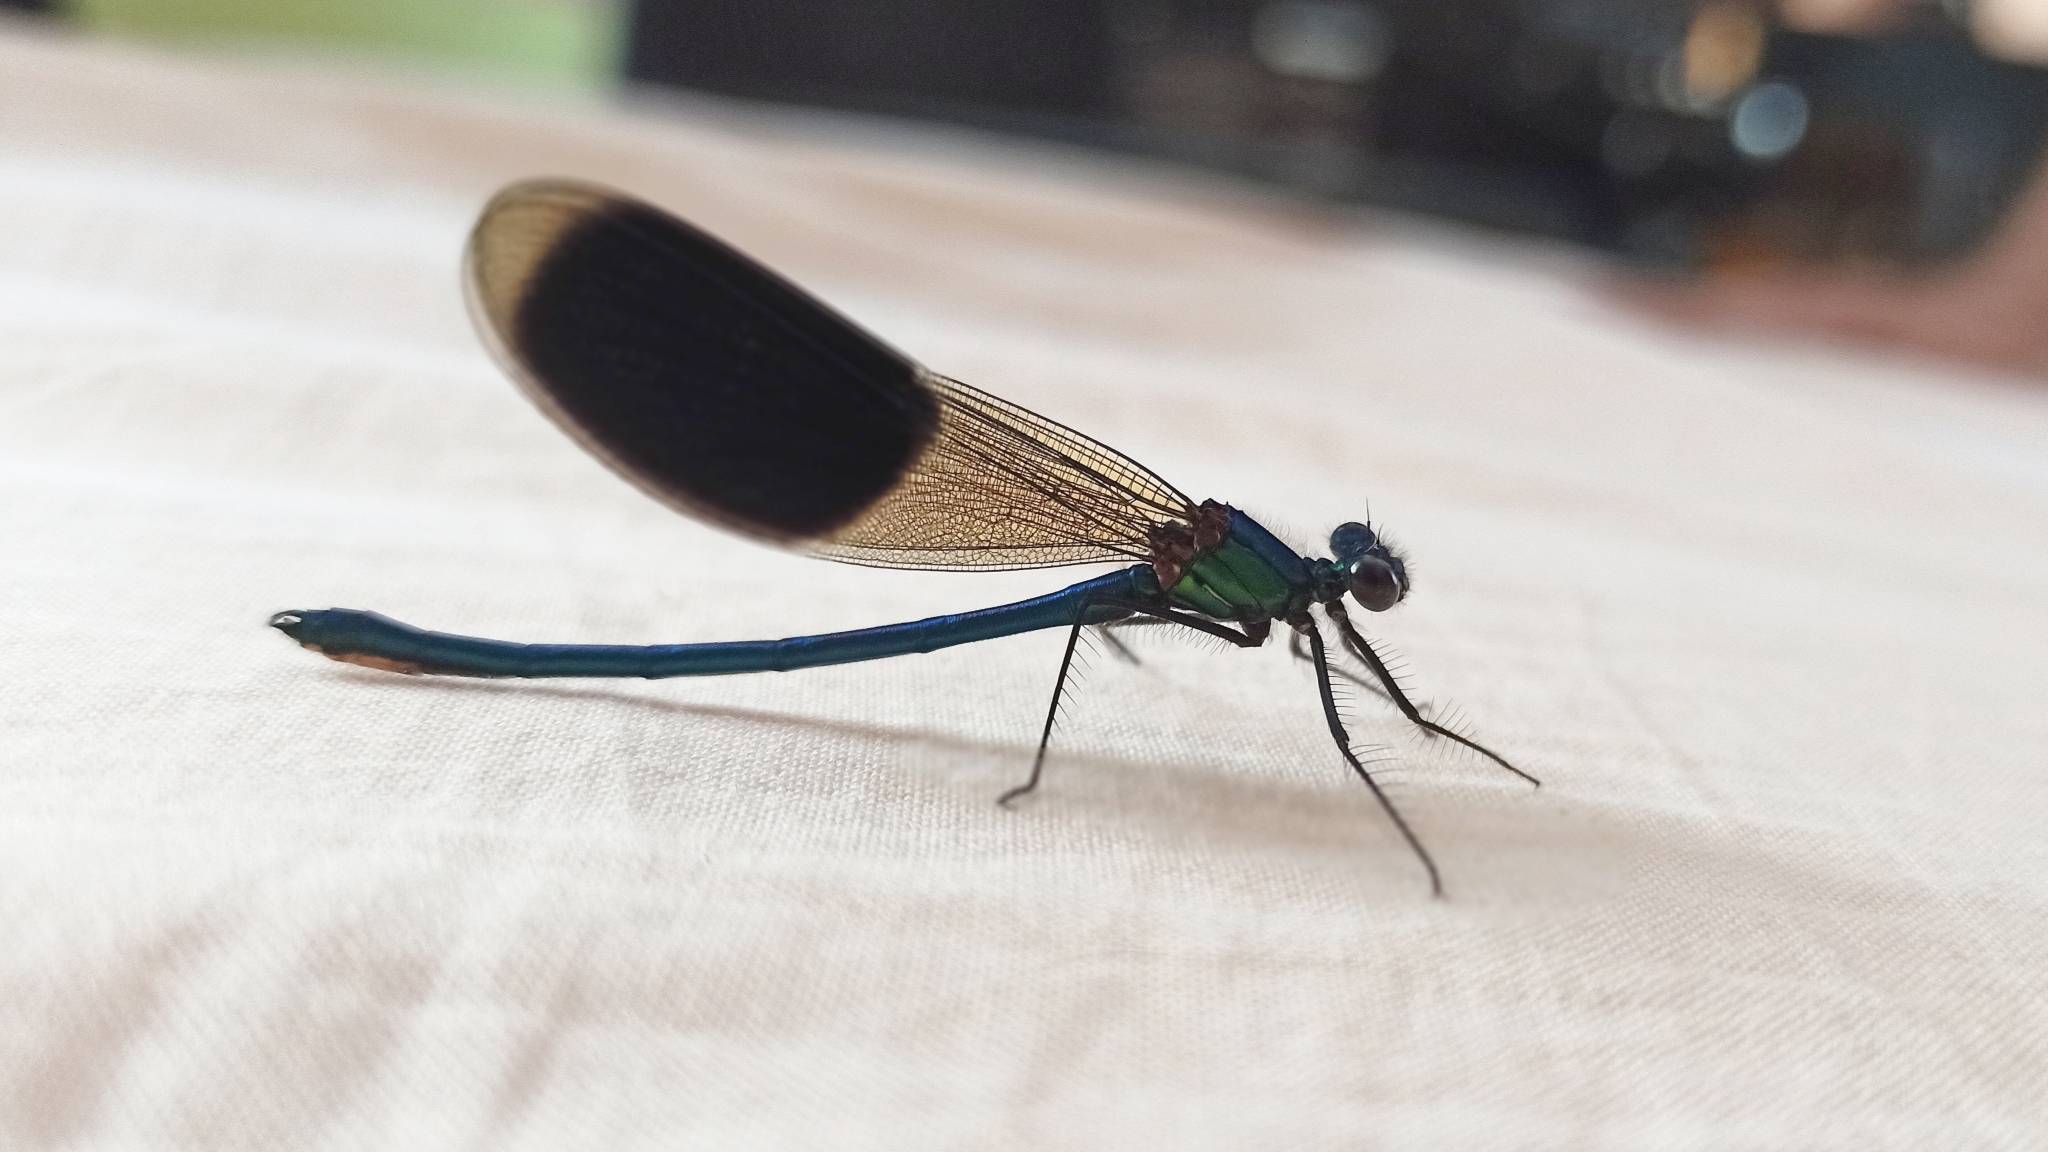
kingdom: Animalia
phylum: Arthropoda
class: Insecta
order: Odonata
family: Calopterygidae
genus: Calopteryx
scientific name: Calopteryx splendens
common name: Banded demoiselle
